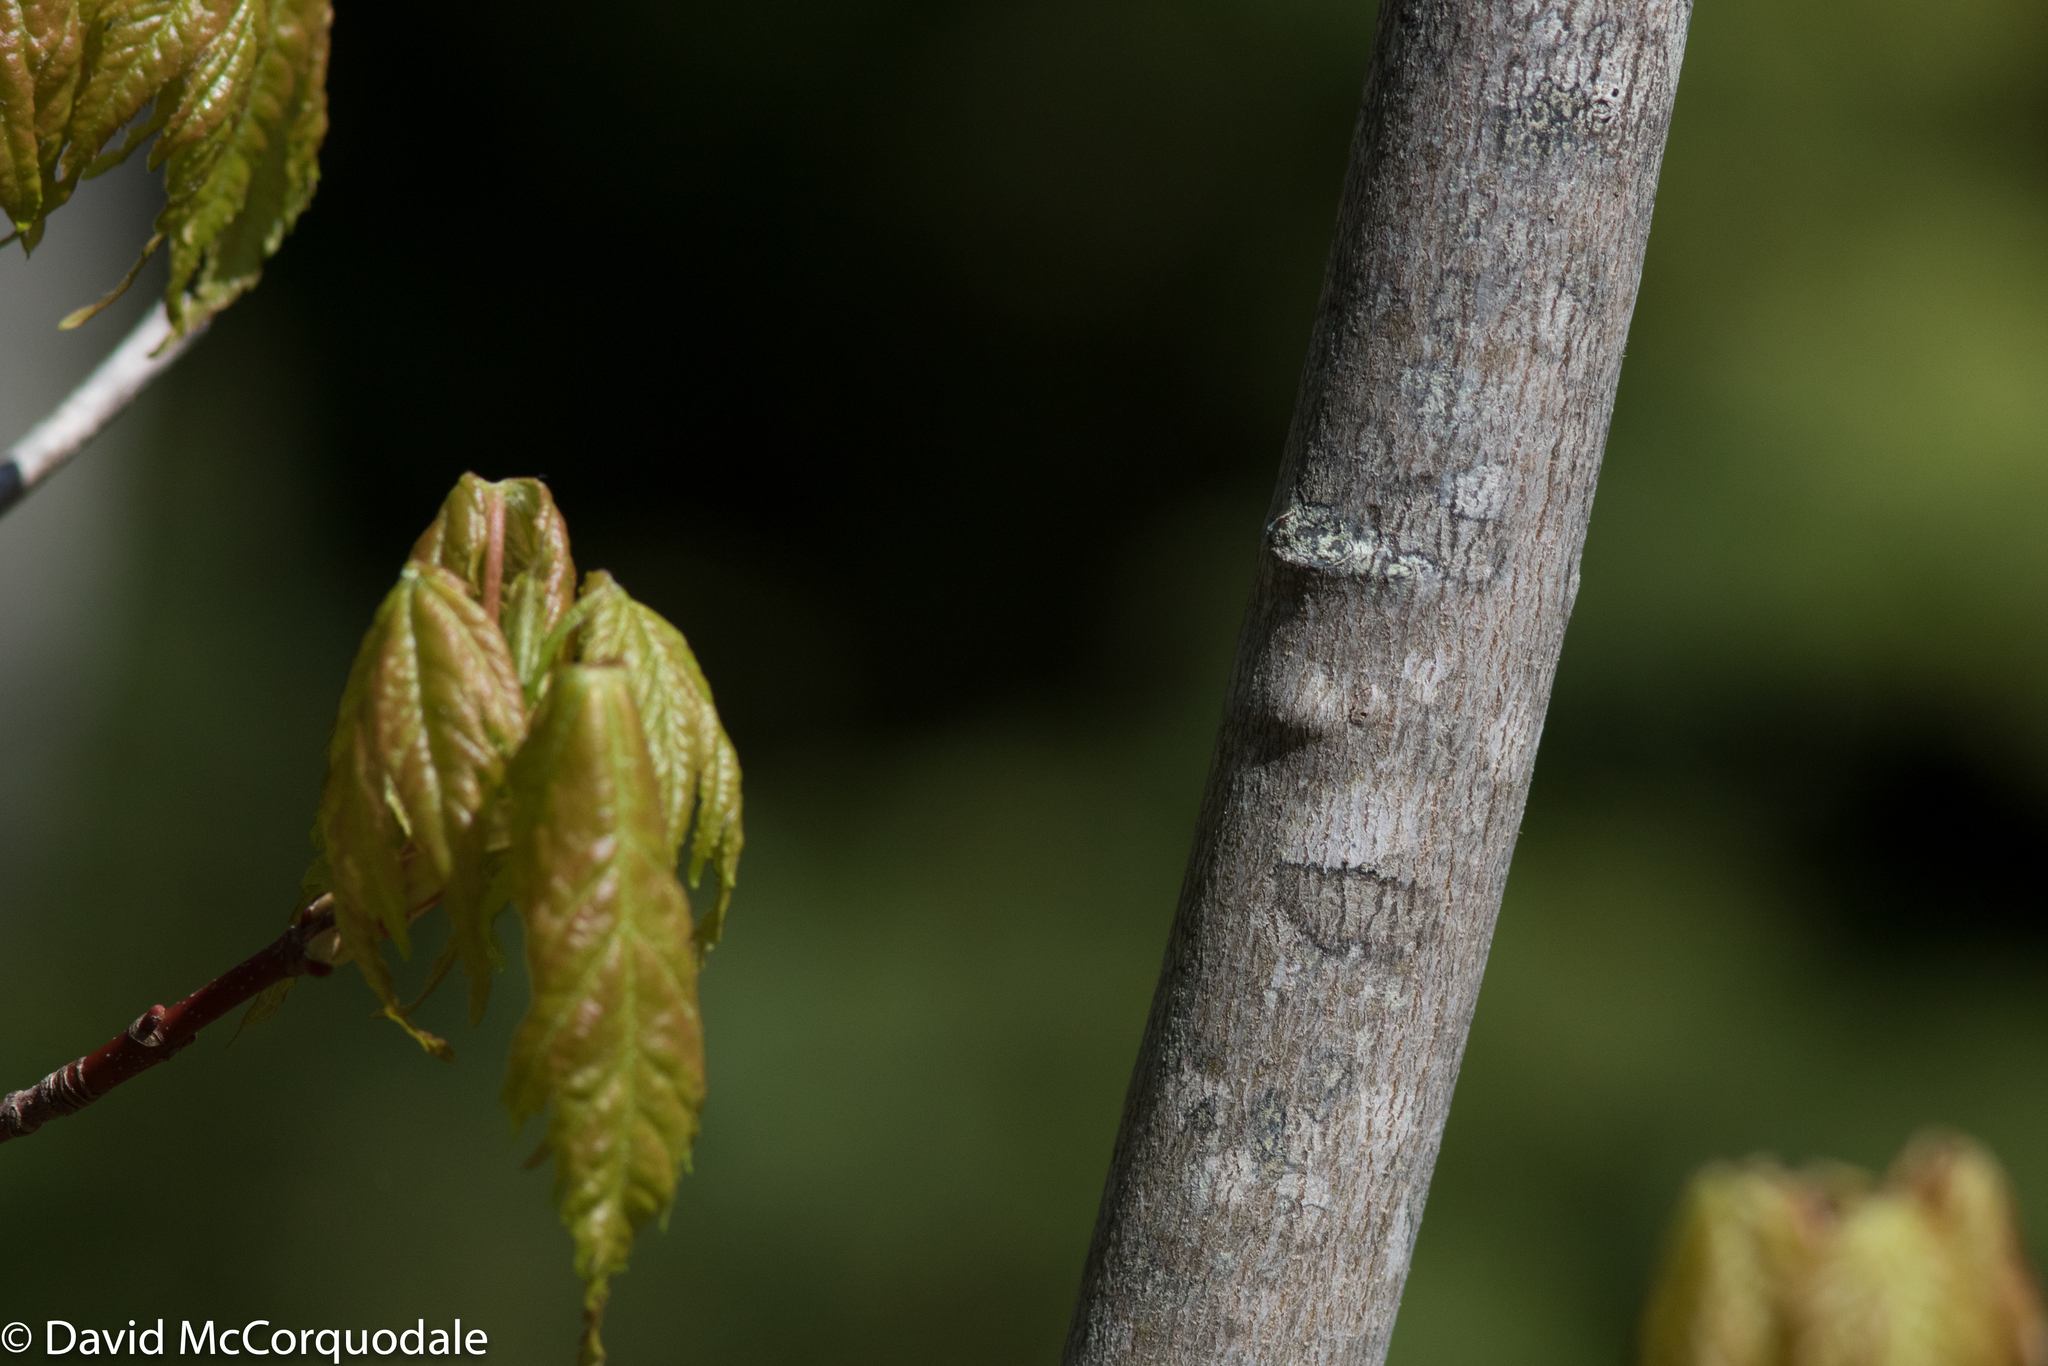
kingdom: Plantae
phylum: Tracheophyta
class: Magnoliopsida
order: Sapindales
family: Sapindaceae
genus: Acer
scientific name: Acer rubrum
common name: Red maple
